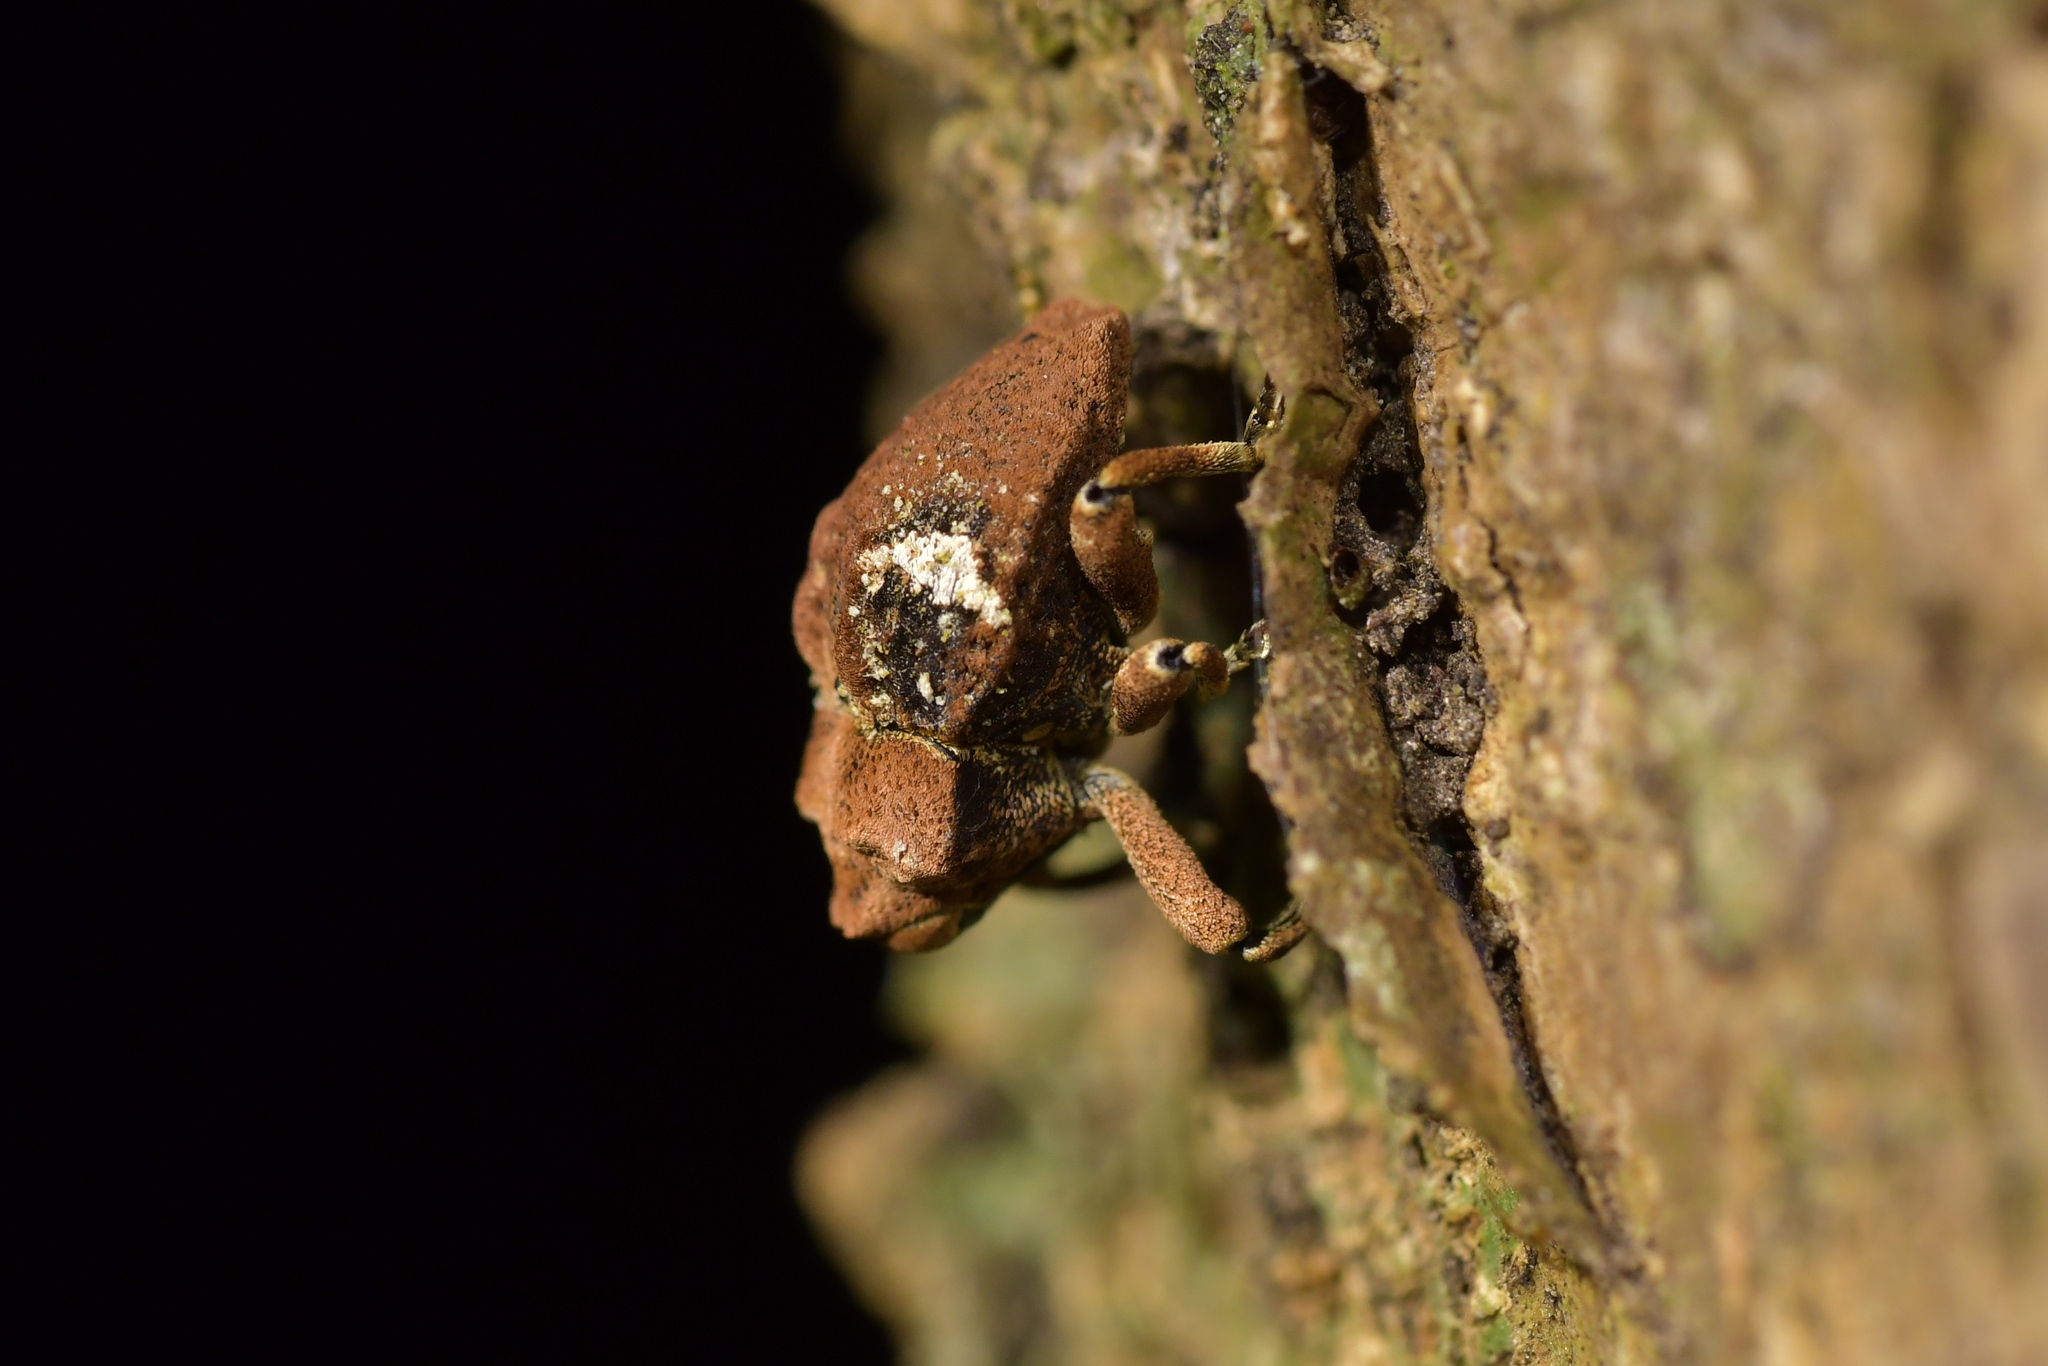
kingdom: Animalia
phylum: Arthropoda
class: Insecta
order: Coleoptera
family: Curculionidae
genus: Sympedius
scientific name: Sympedius bufo
